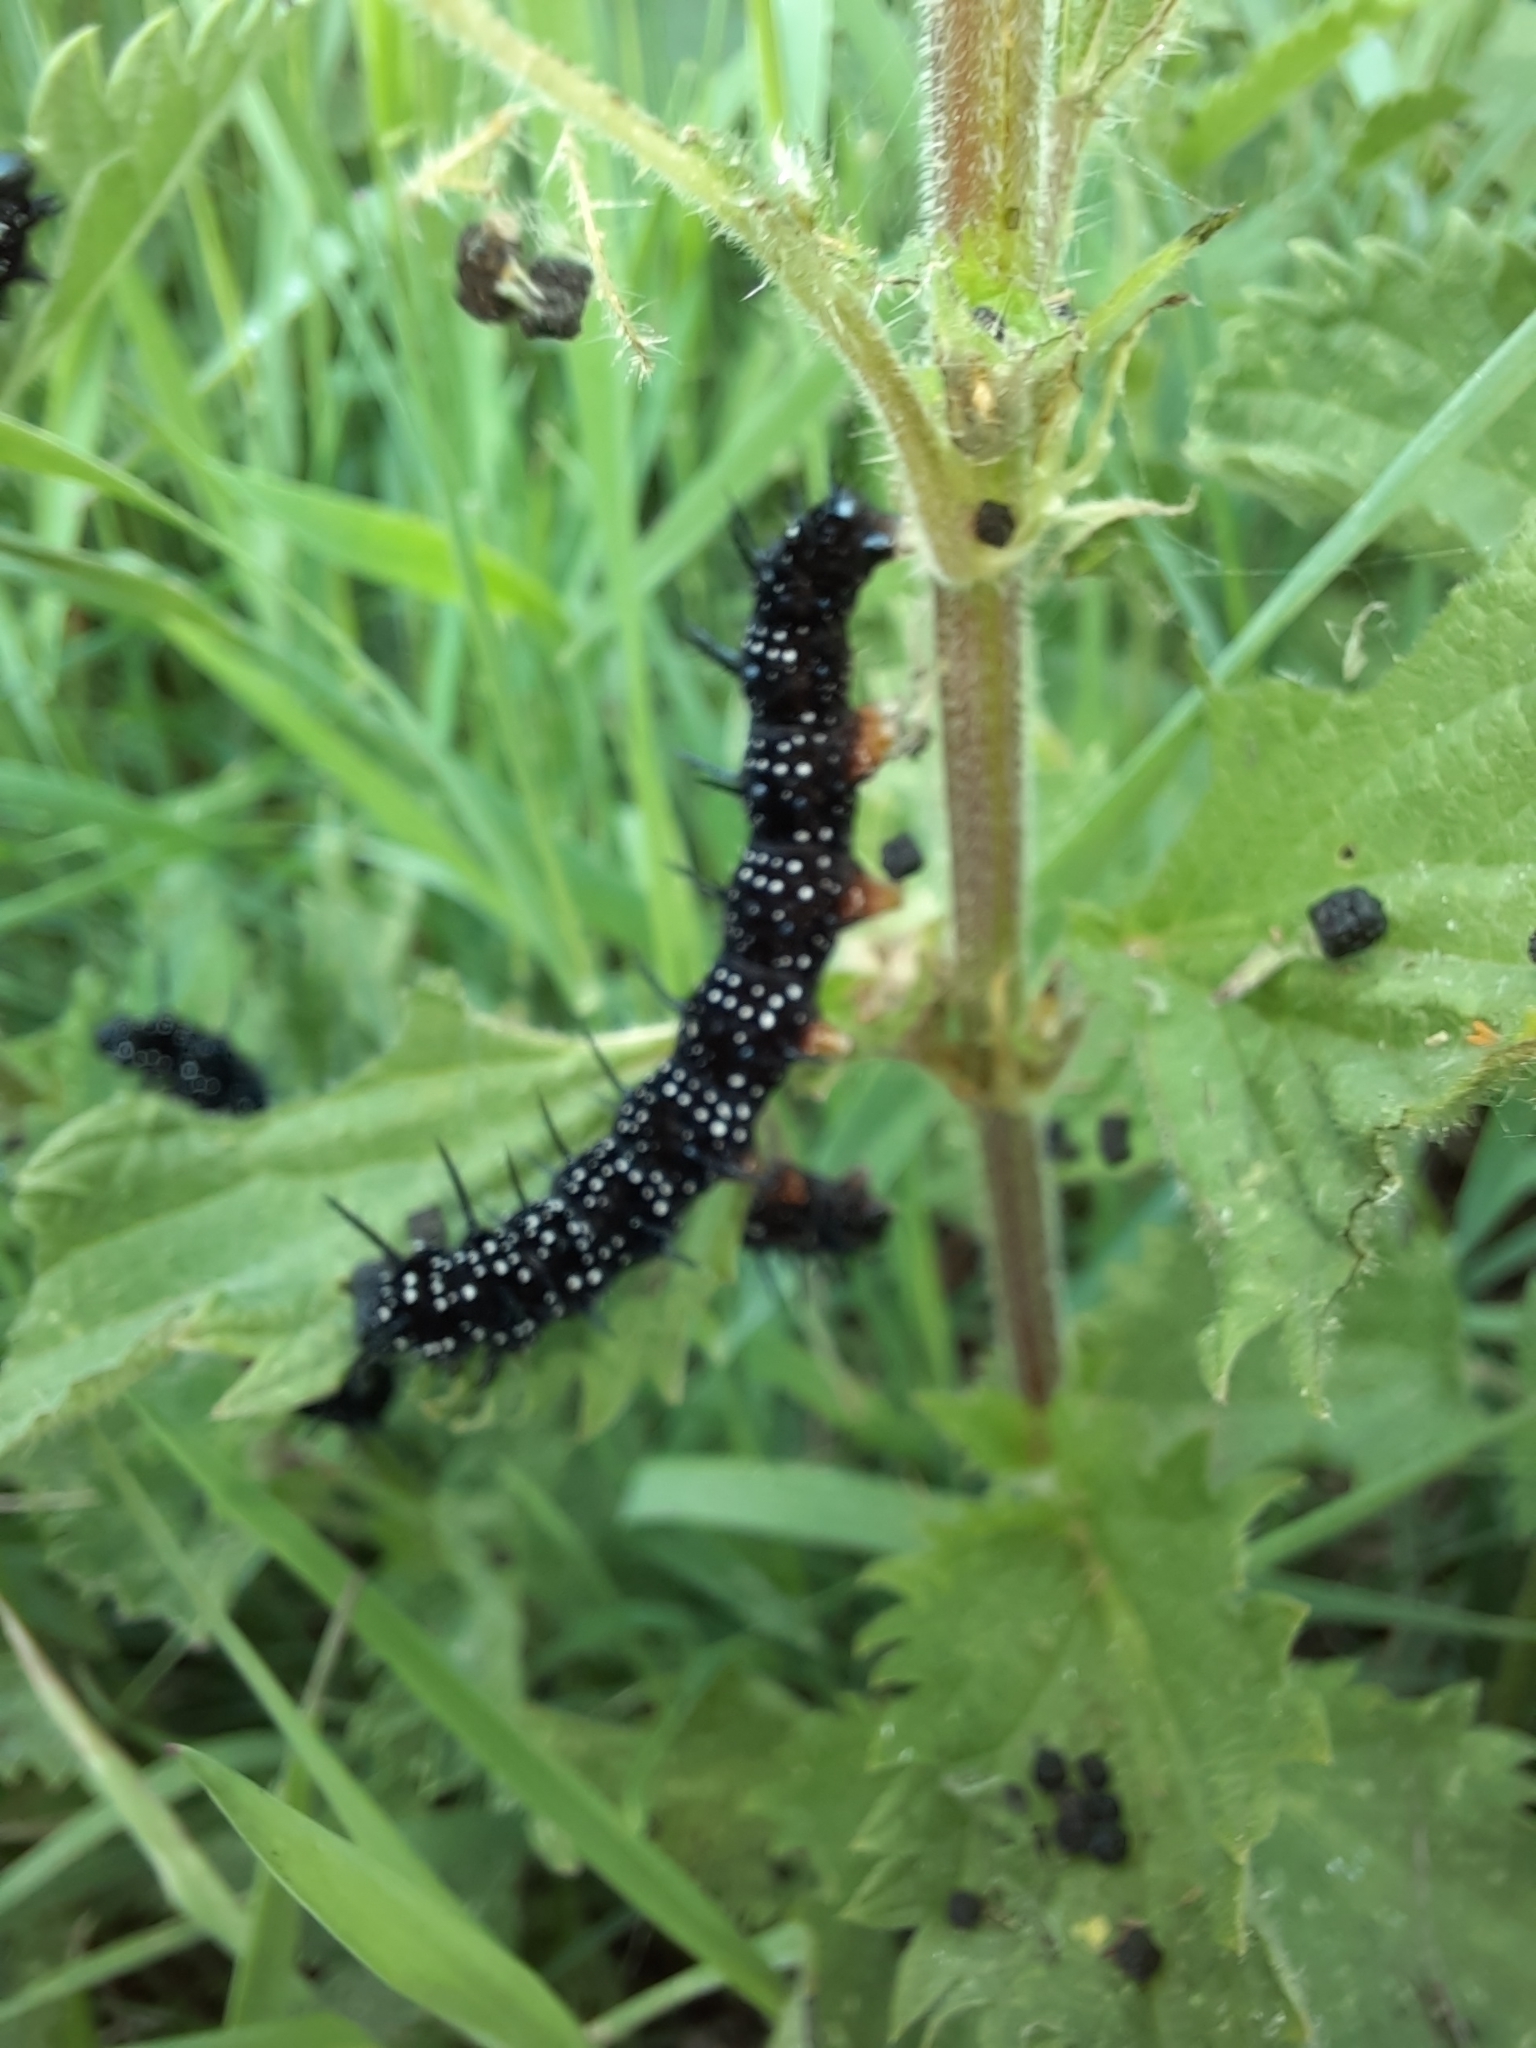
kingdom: Animalia
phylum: Arthropoda
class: Insecta
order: Lepidoptera
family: Nymphalidae
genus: Aglais
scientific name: Aglais io
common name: Peacock
